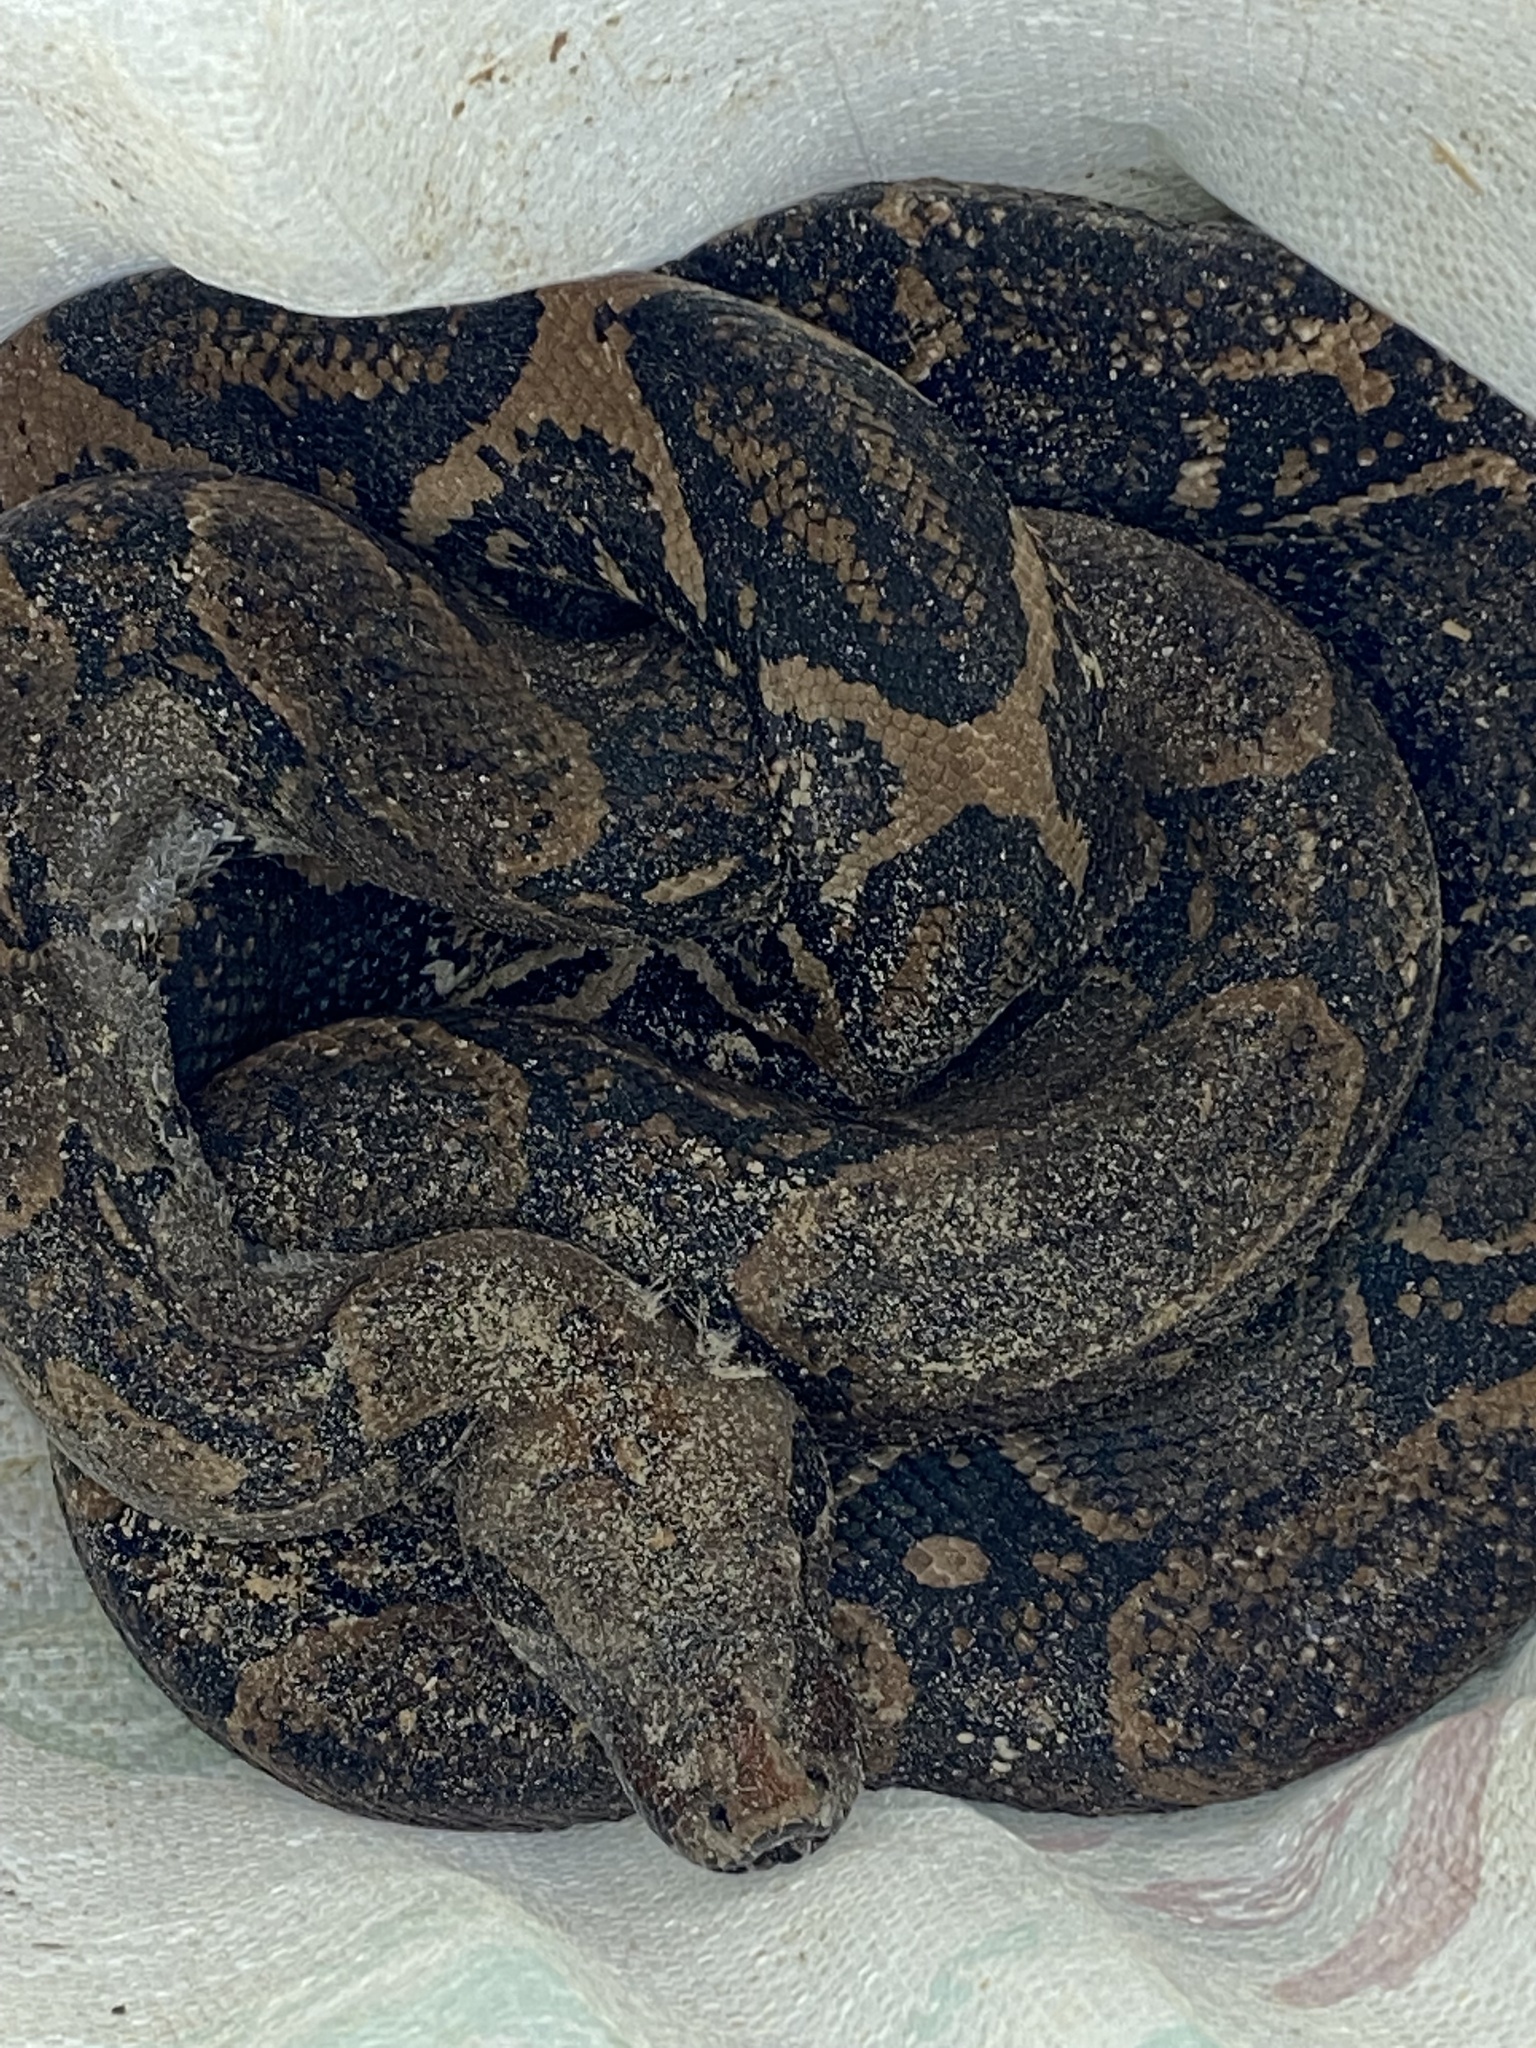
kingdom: Animalia
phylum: Chordata
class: Squamata
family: Boidae
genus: Boa
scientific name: Boa imperator
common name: Central american boa
